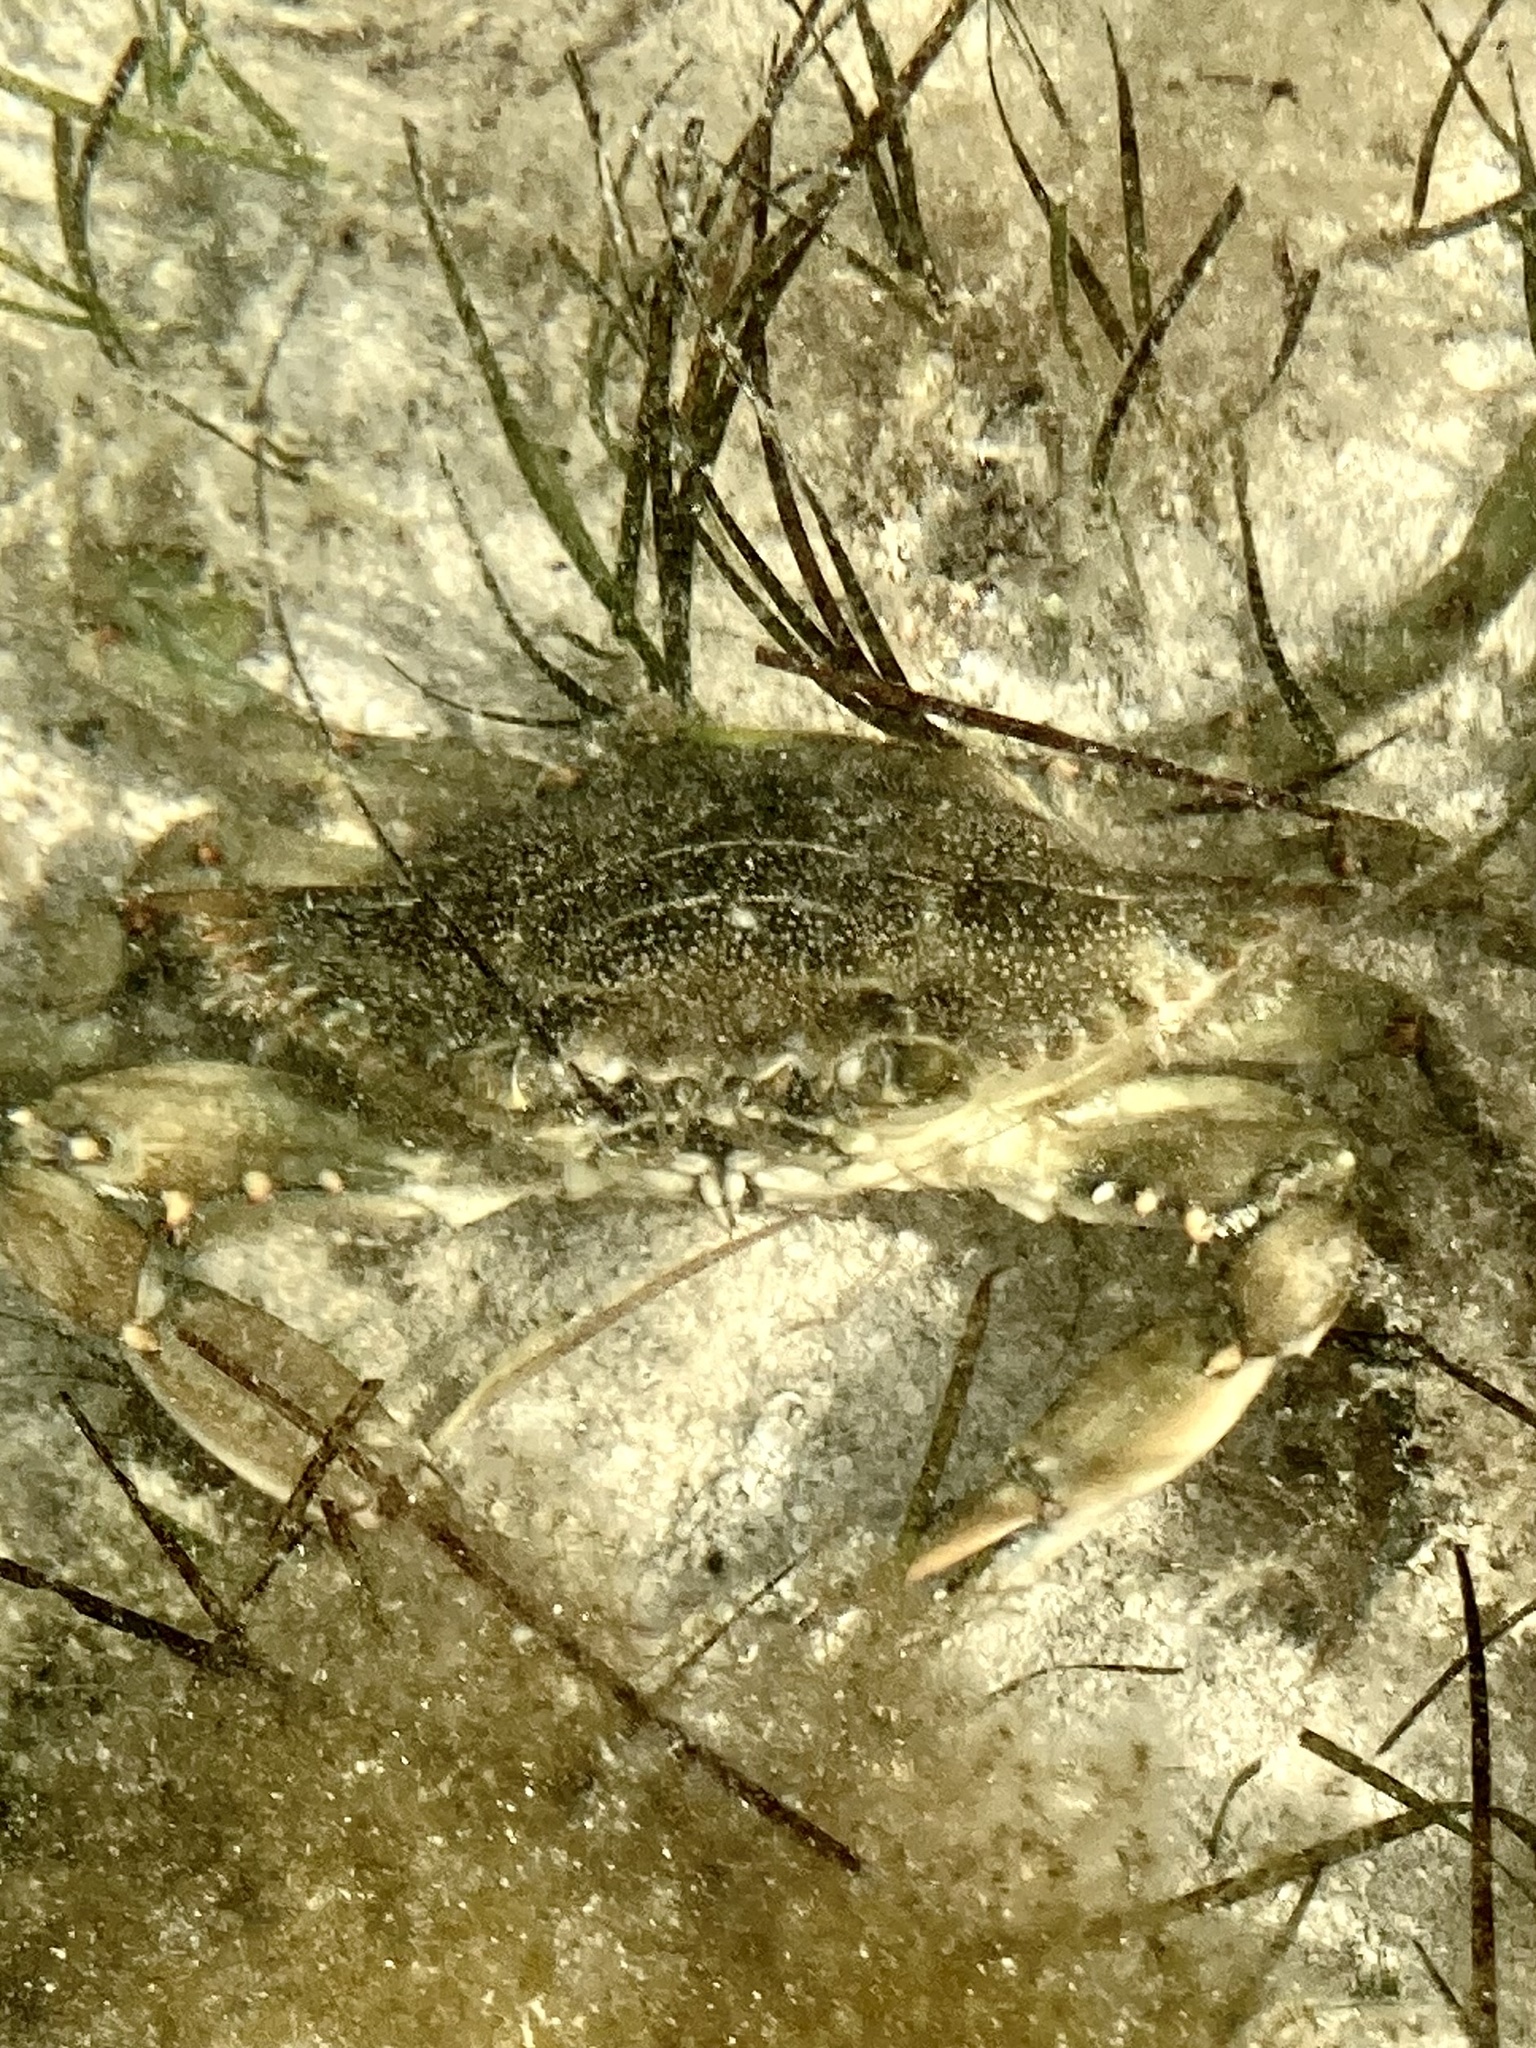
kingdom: Animalia
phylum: Arthropoda
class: Malacostraca
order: Decapoda
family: Portunidae
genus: Callinectes
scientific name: Callinectes sapidus
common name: Blue crab
